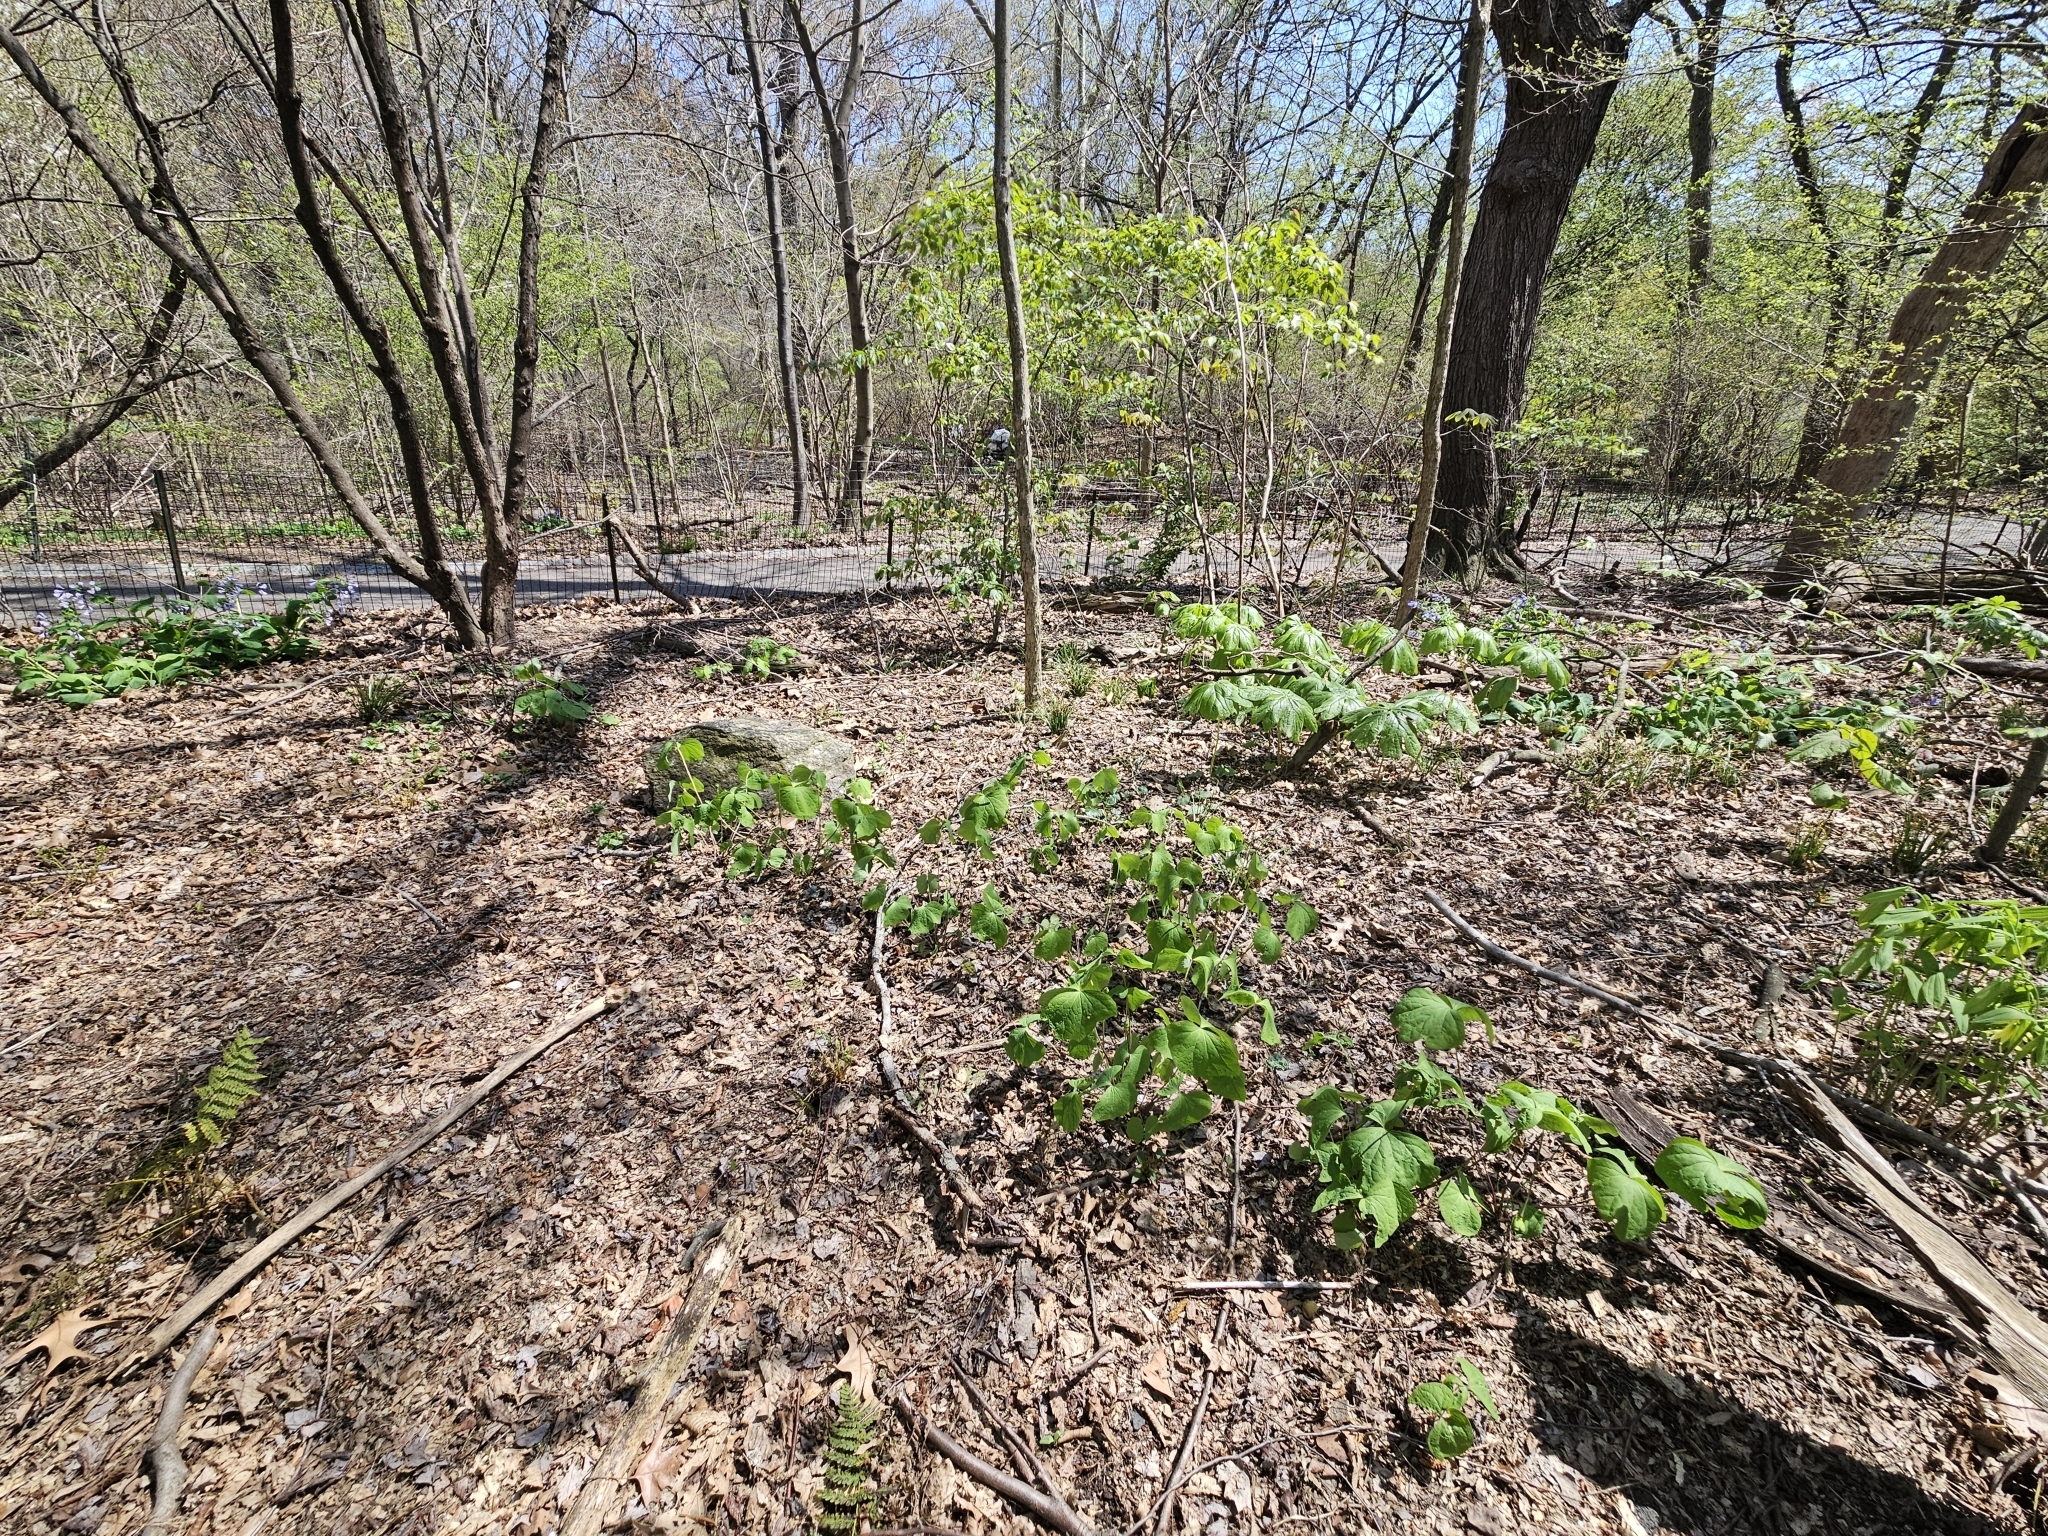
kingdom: Plantae
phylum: Tracheophyta
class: Magnoliopsida
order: Ranunculales
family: Berberidaceae
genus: Jeffersonia
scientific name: Jeffersonia diphylla
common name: Rheumatism-root
